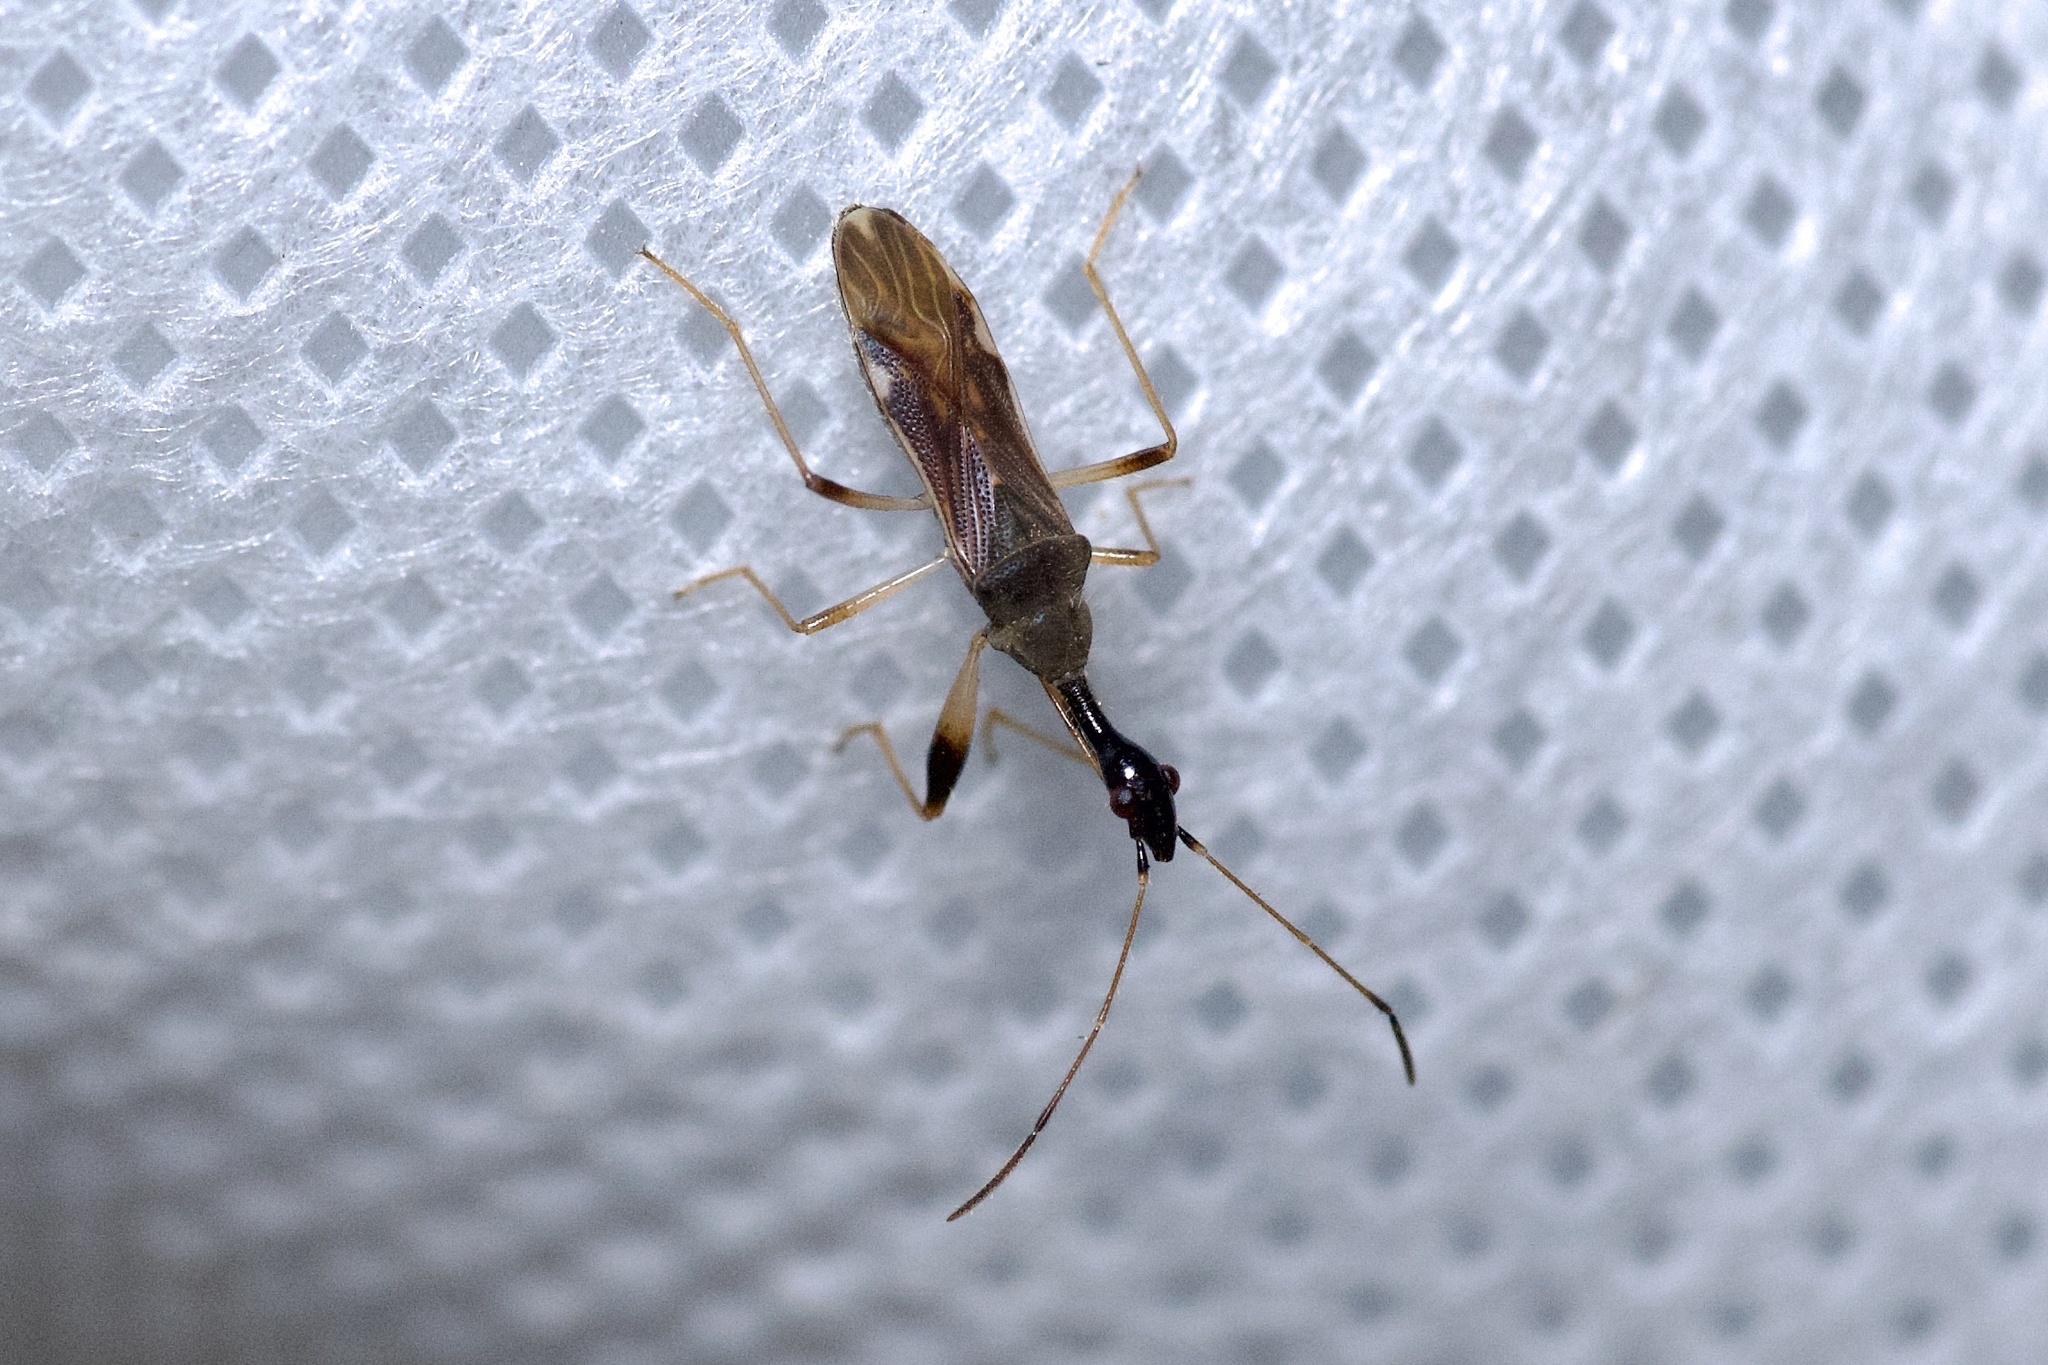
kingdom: Animalia
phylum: Arthropoda
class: Insecta
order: Hemiptera
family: Rhyparochromidae
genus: Myodocha
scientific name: Myodocha serripes
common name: Long-necked seed bug
